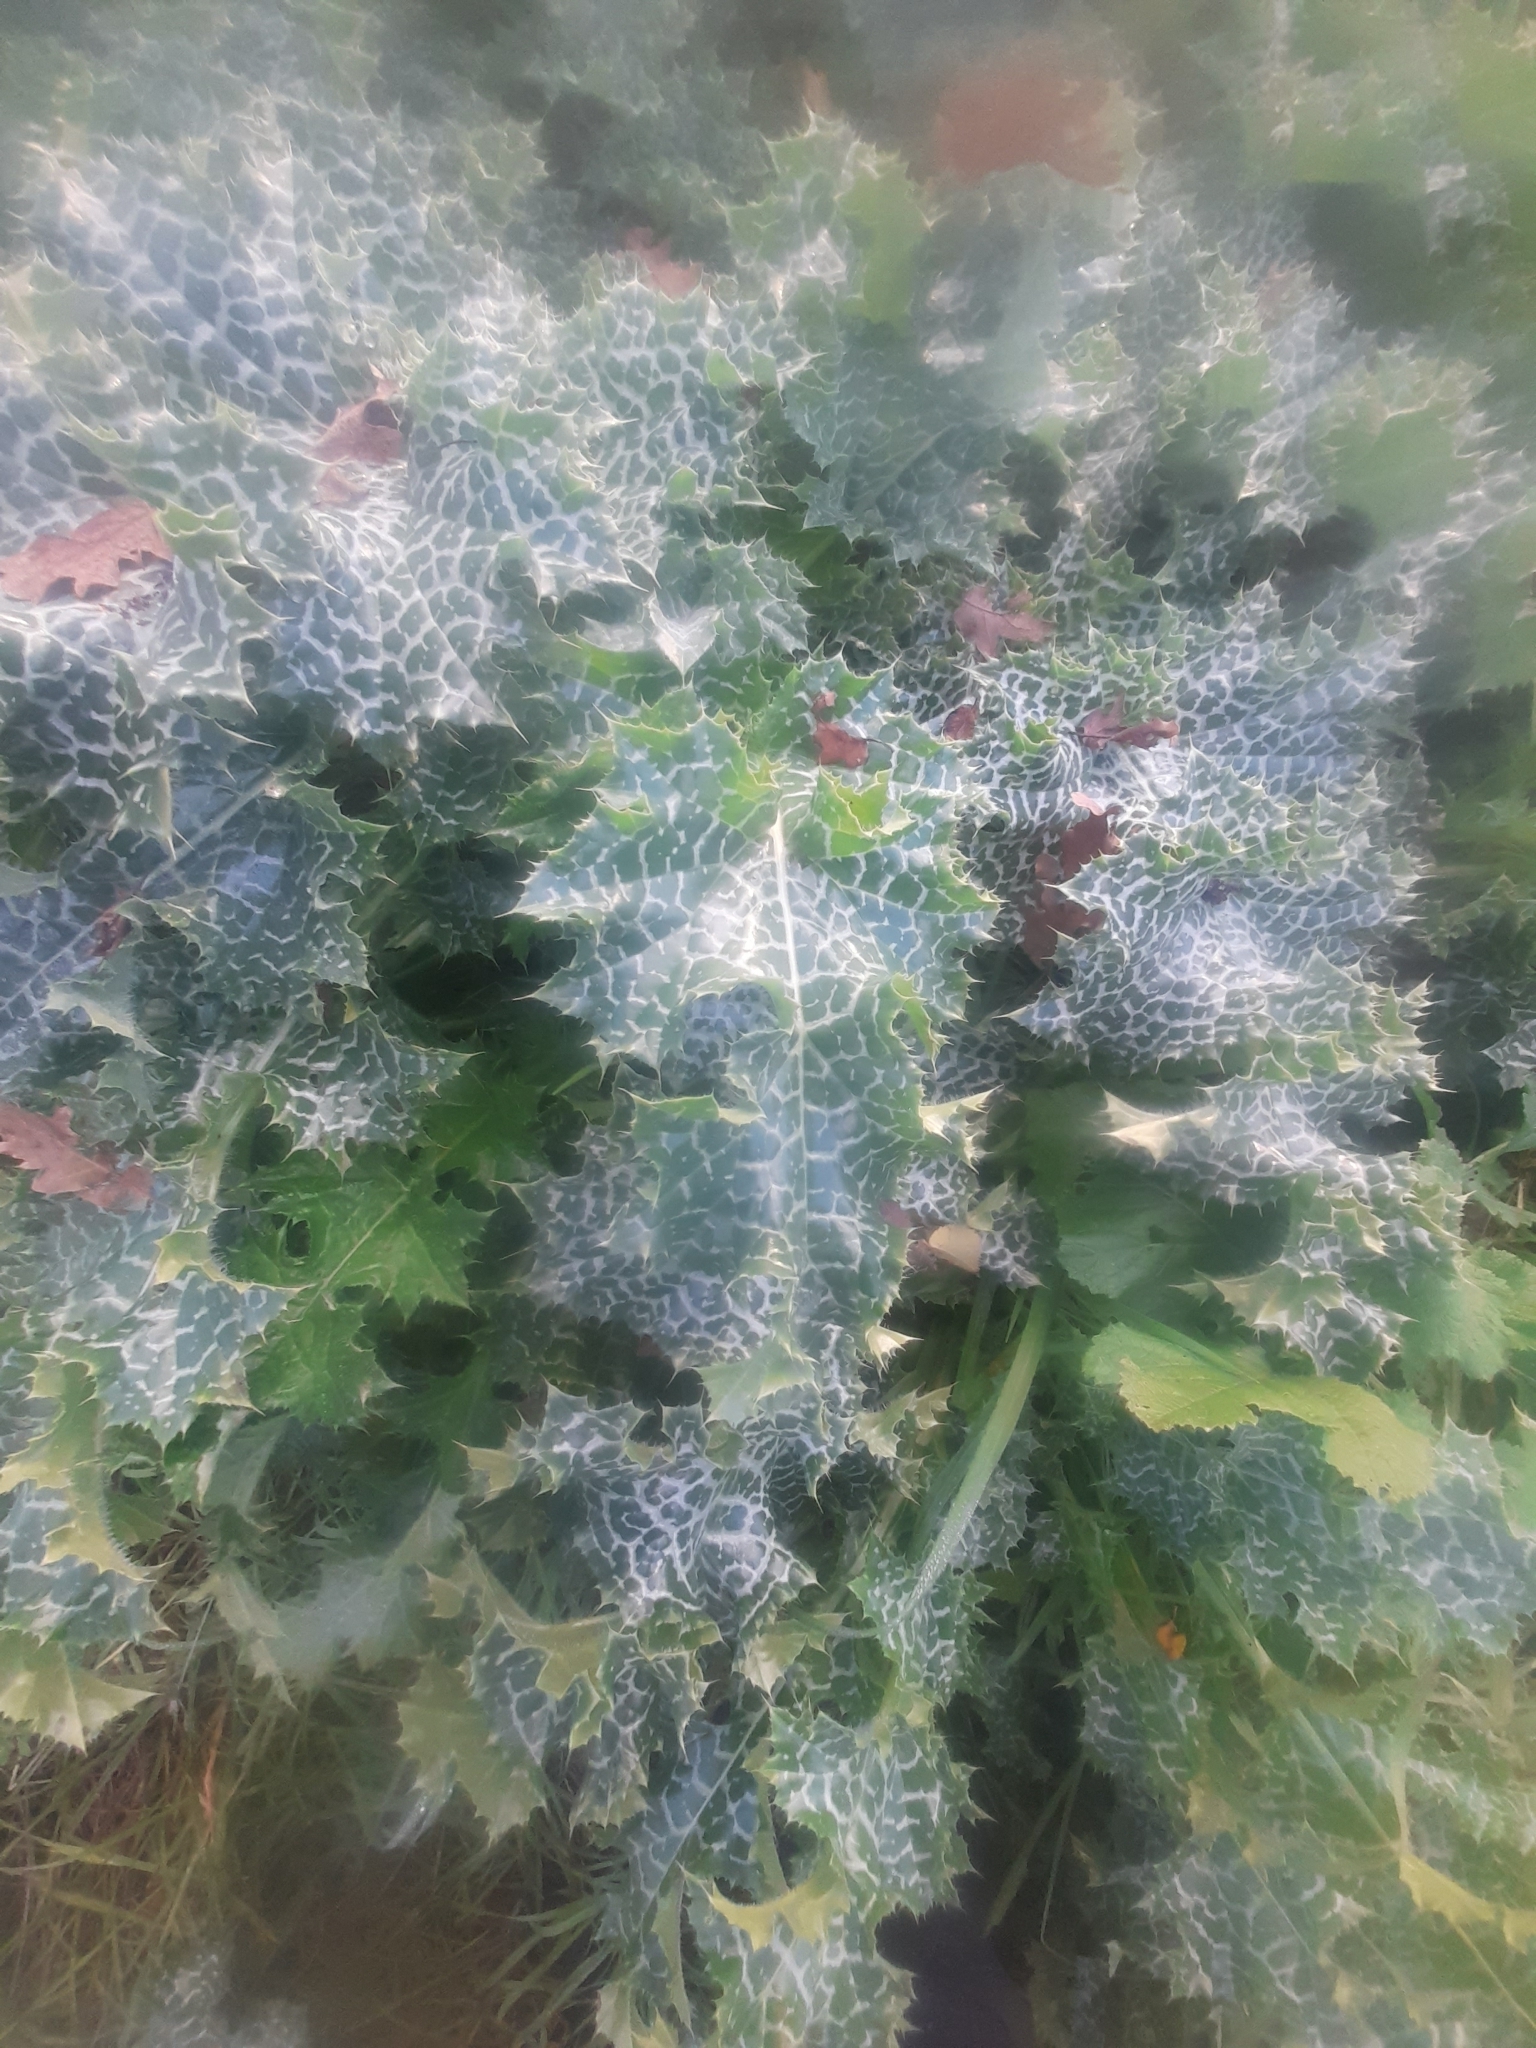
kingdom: Plantae
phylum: Tracheophyta
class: Magnoliopsida
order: Asterales
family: Asteraceae
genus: Silybum
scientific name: Silybum marianum
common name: Milk thistle
